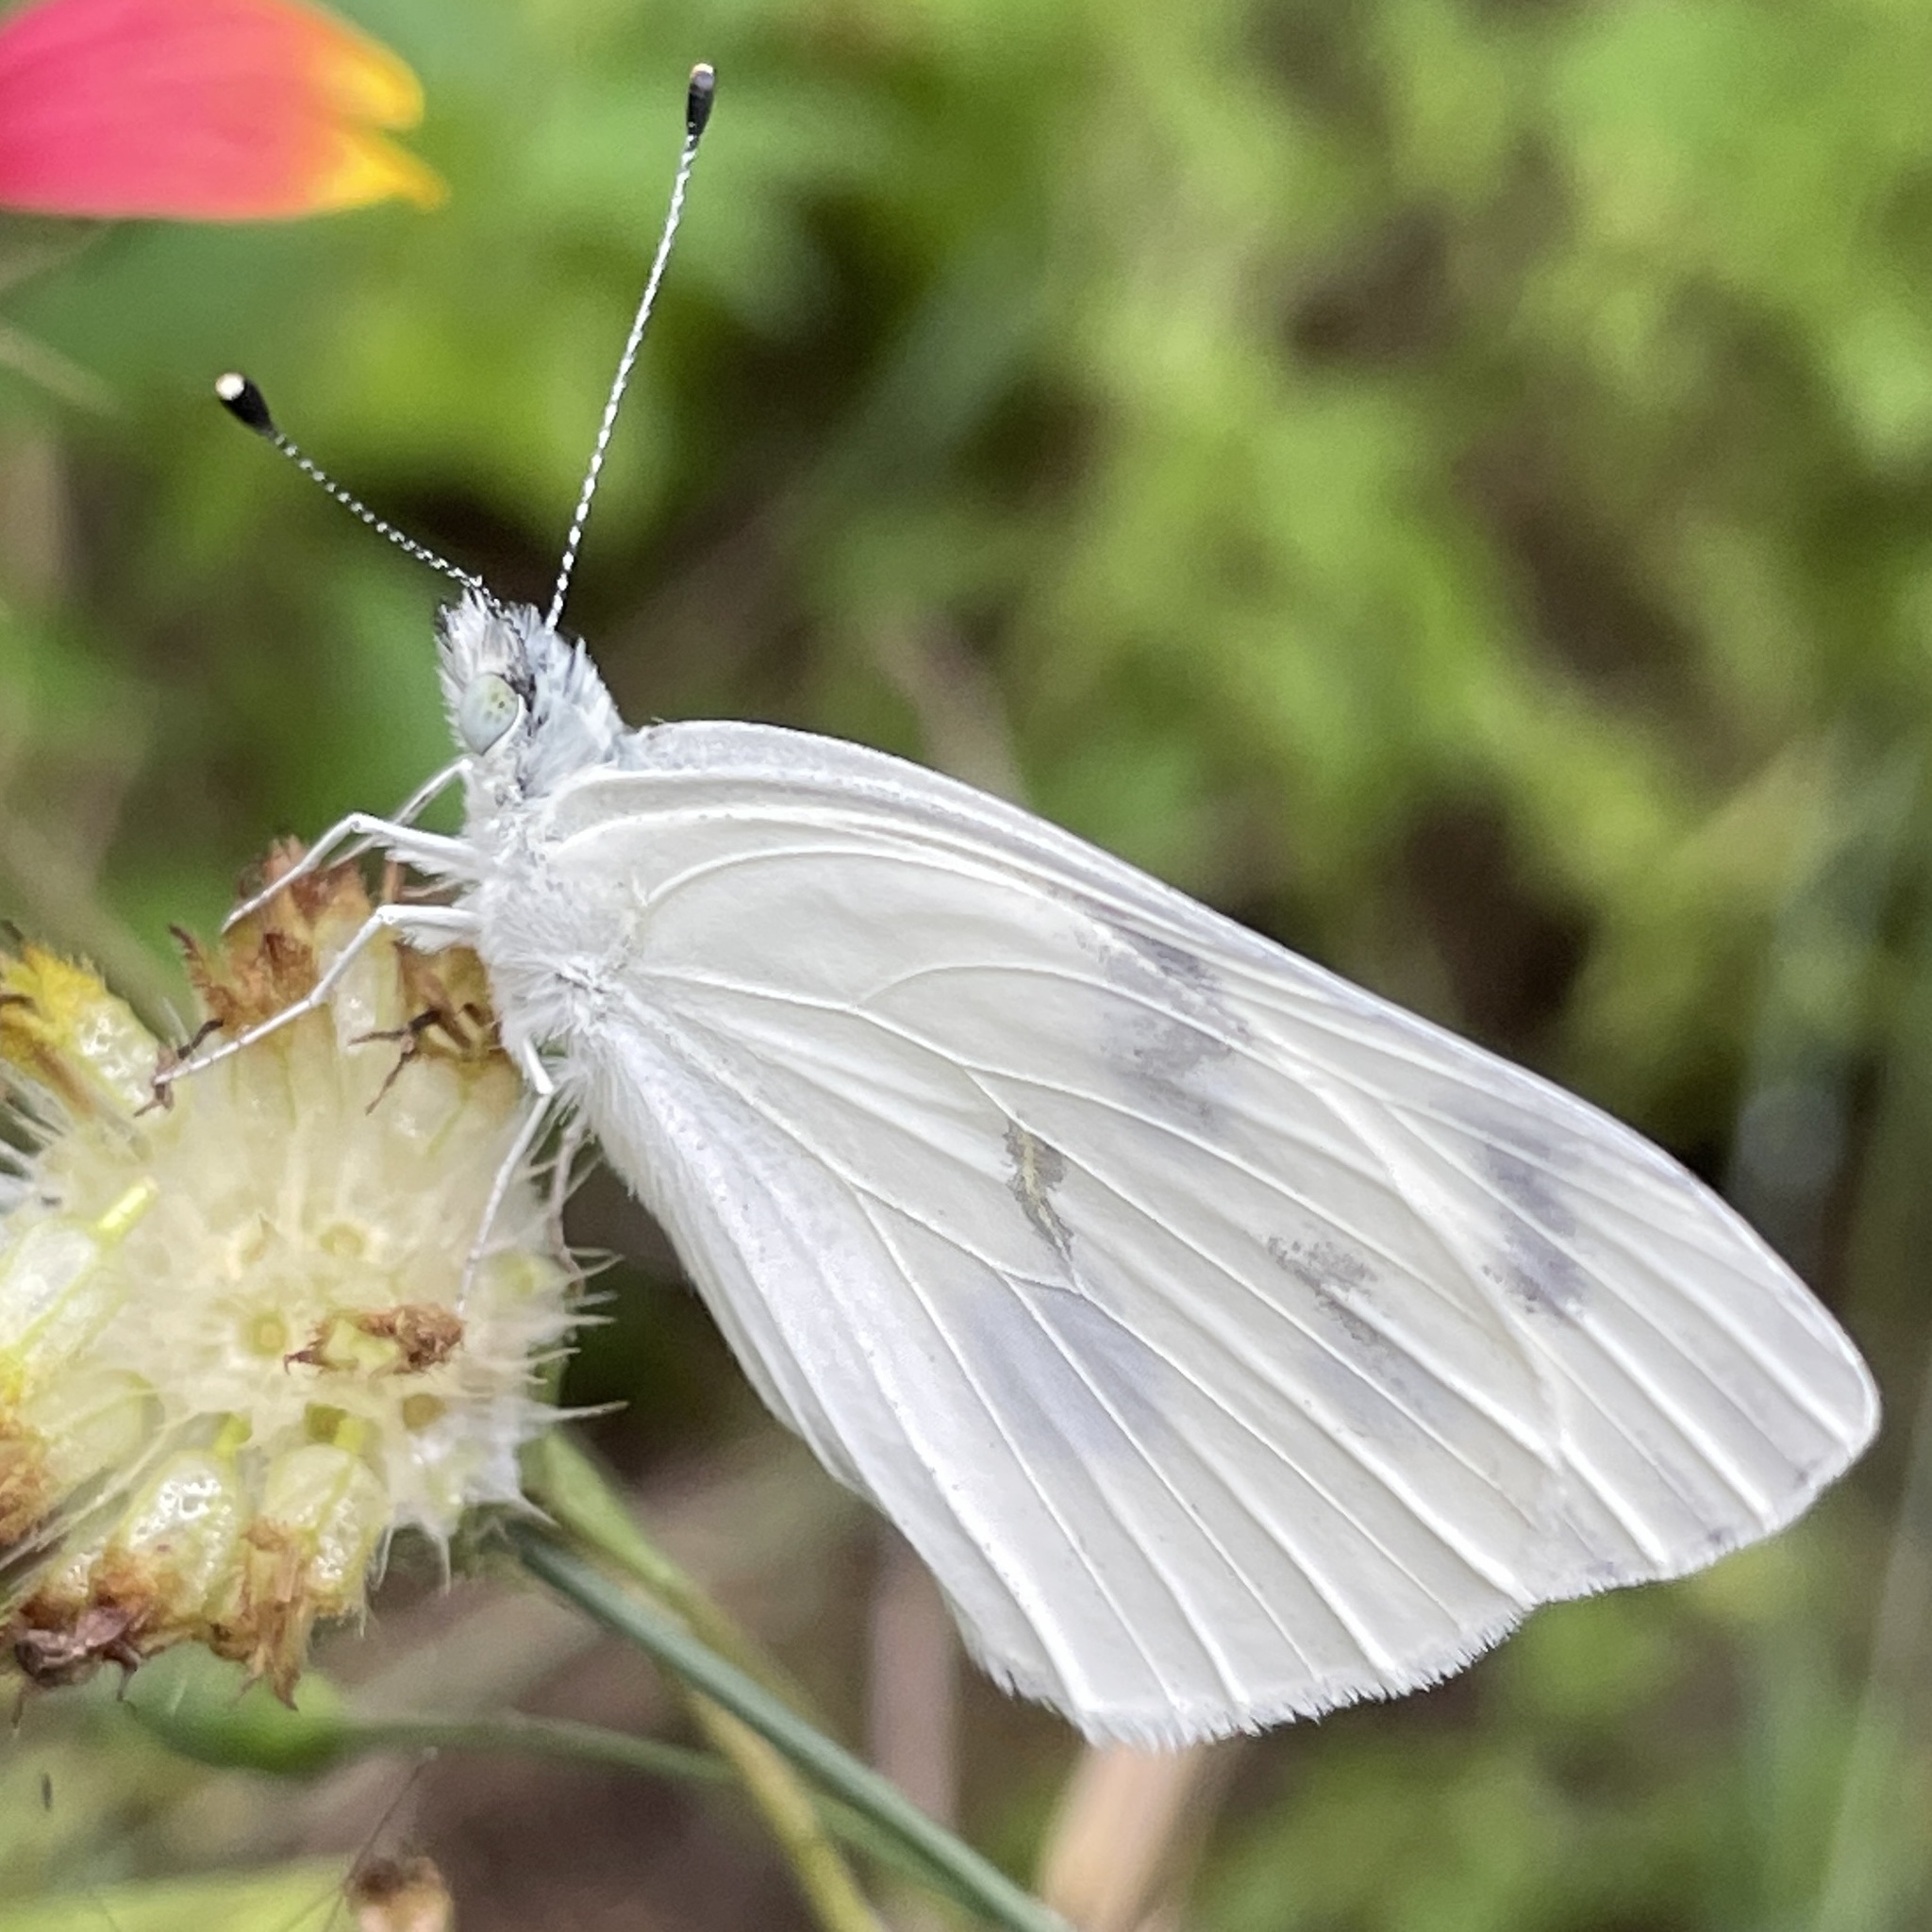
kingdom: Animalia
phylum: Arthropoda
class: Insecta
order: Lepidoptera
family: Pieridae
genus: Pontia
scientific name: Pontia protodice
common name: Checkered white
